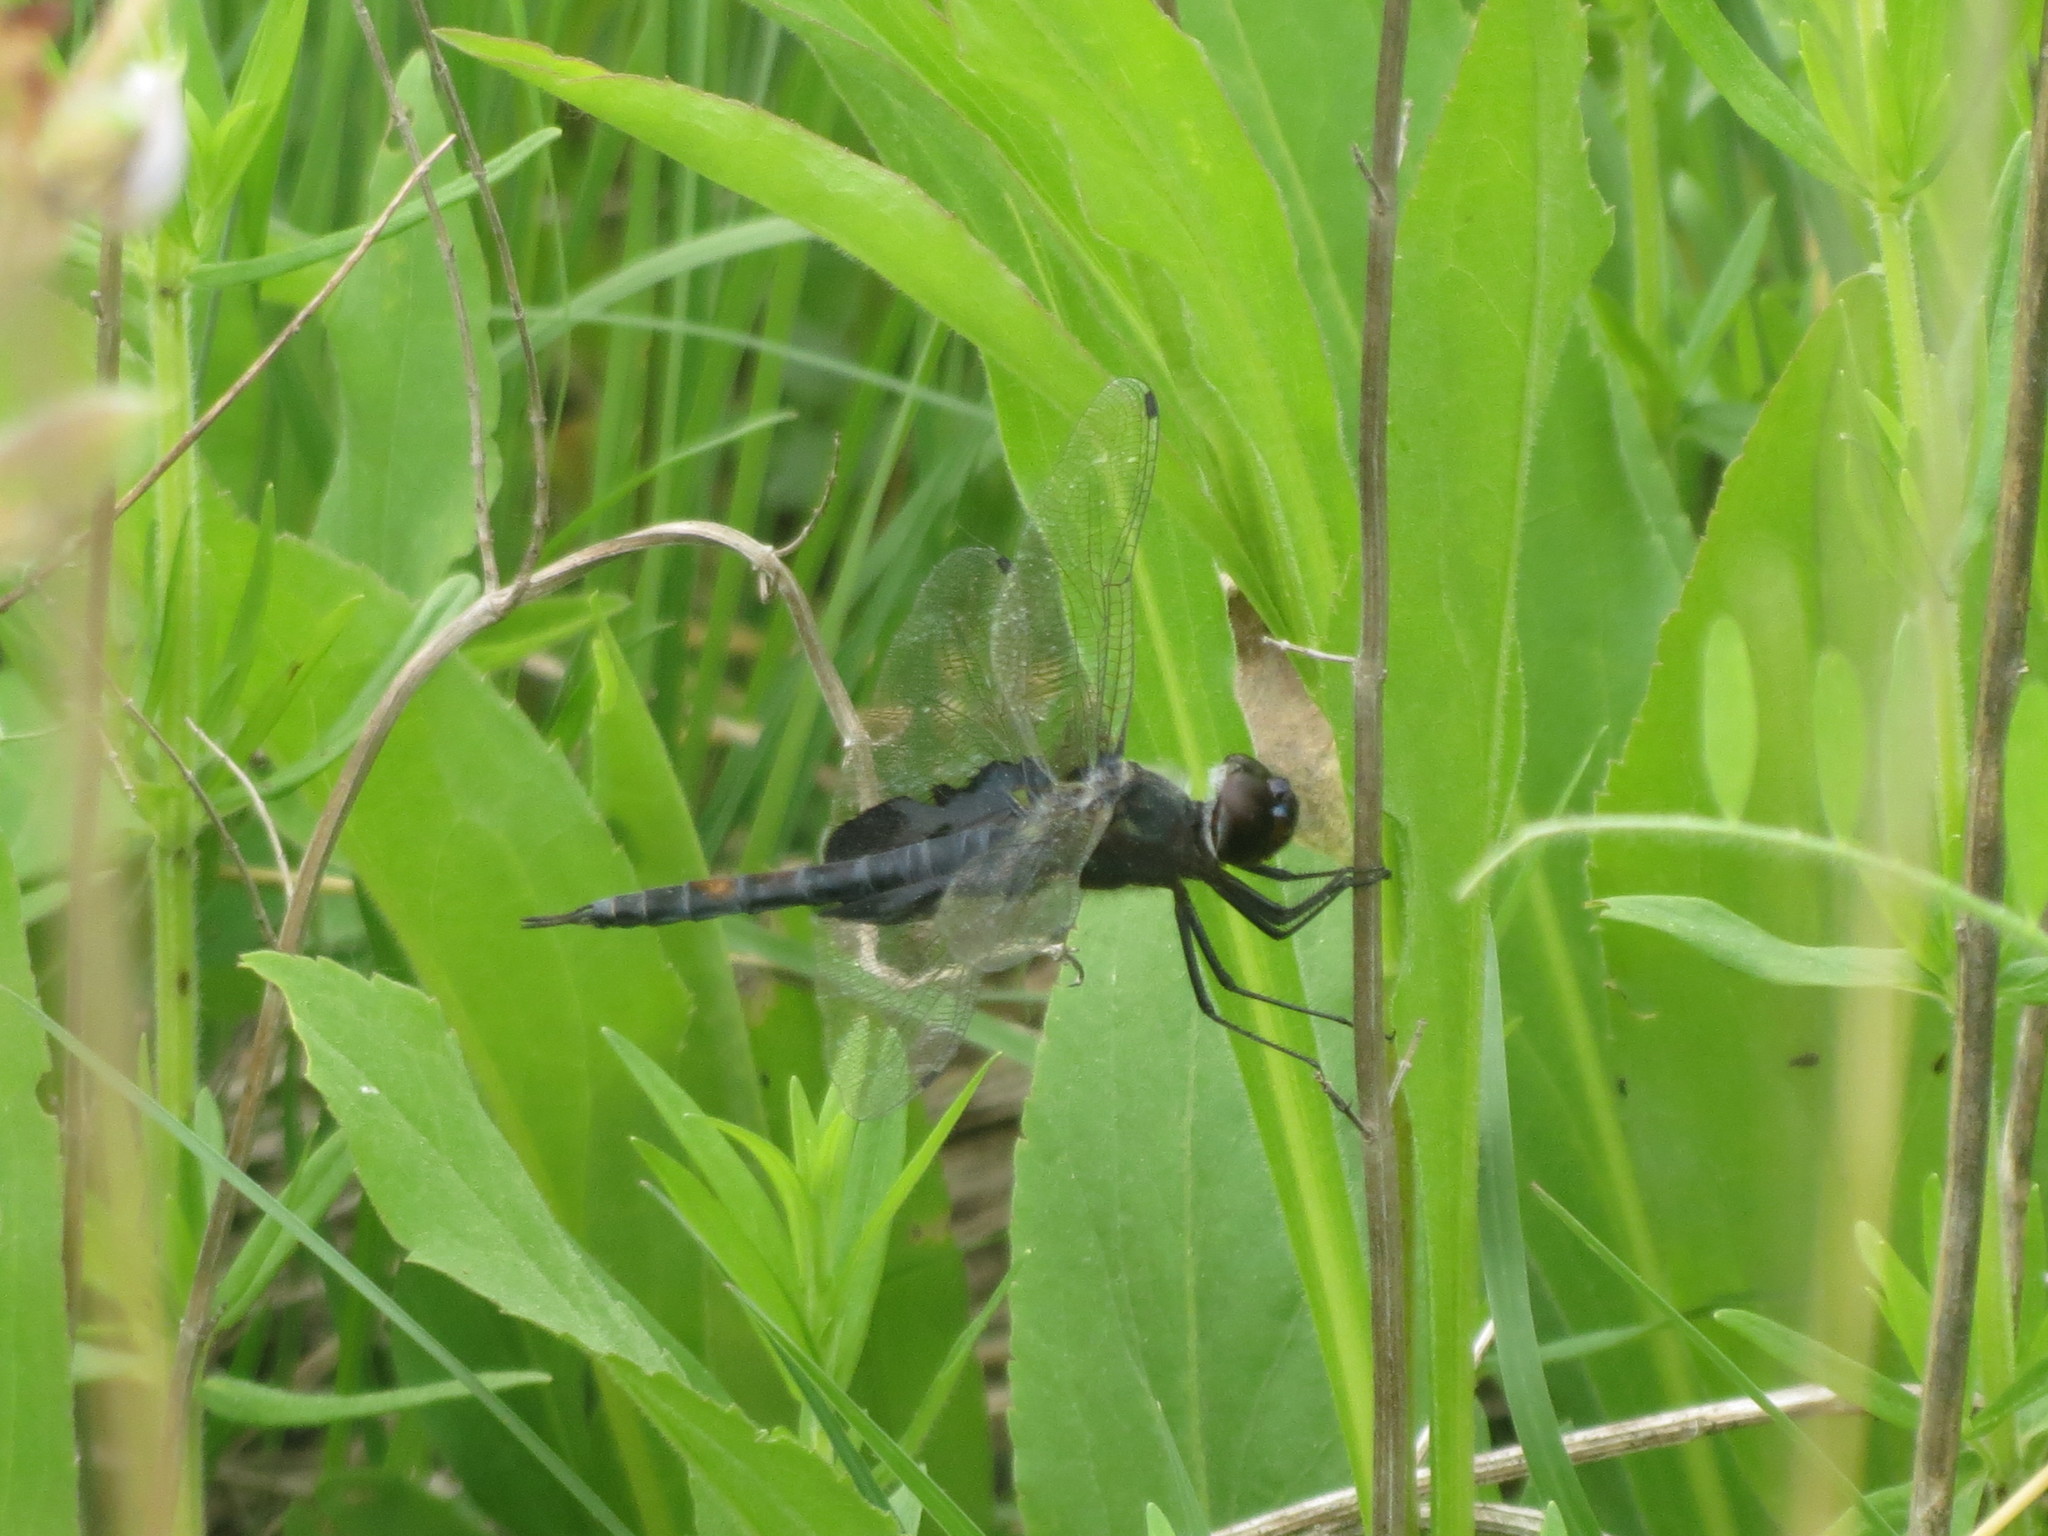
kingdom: Animalia
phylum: Arthropoda
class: Insecta
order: Odonata
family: Libellulidae
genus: Tramea
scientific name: Tramea lacerata
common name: Black saddlebags
